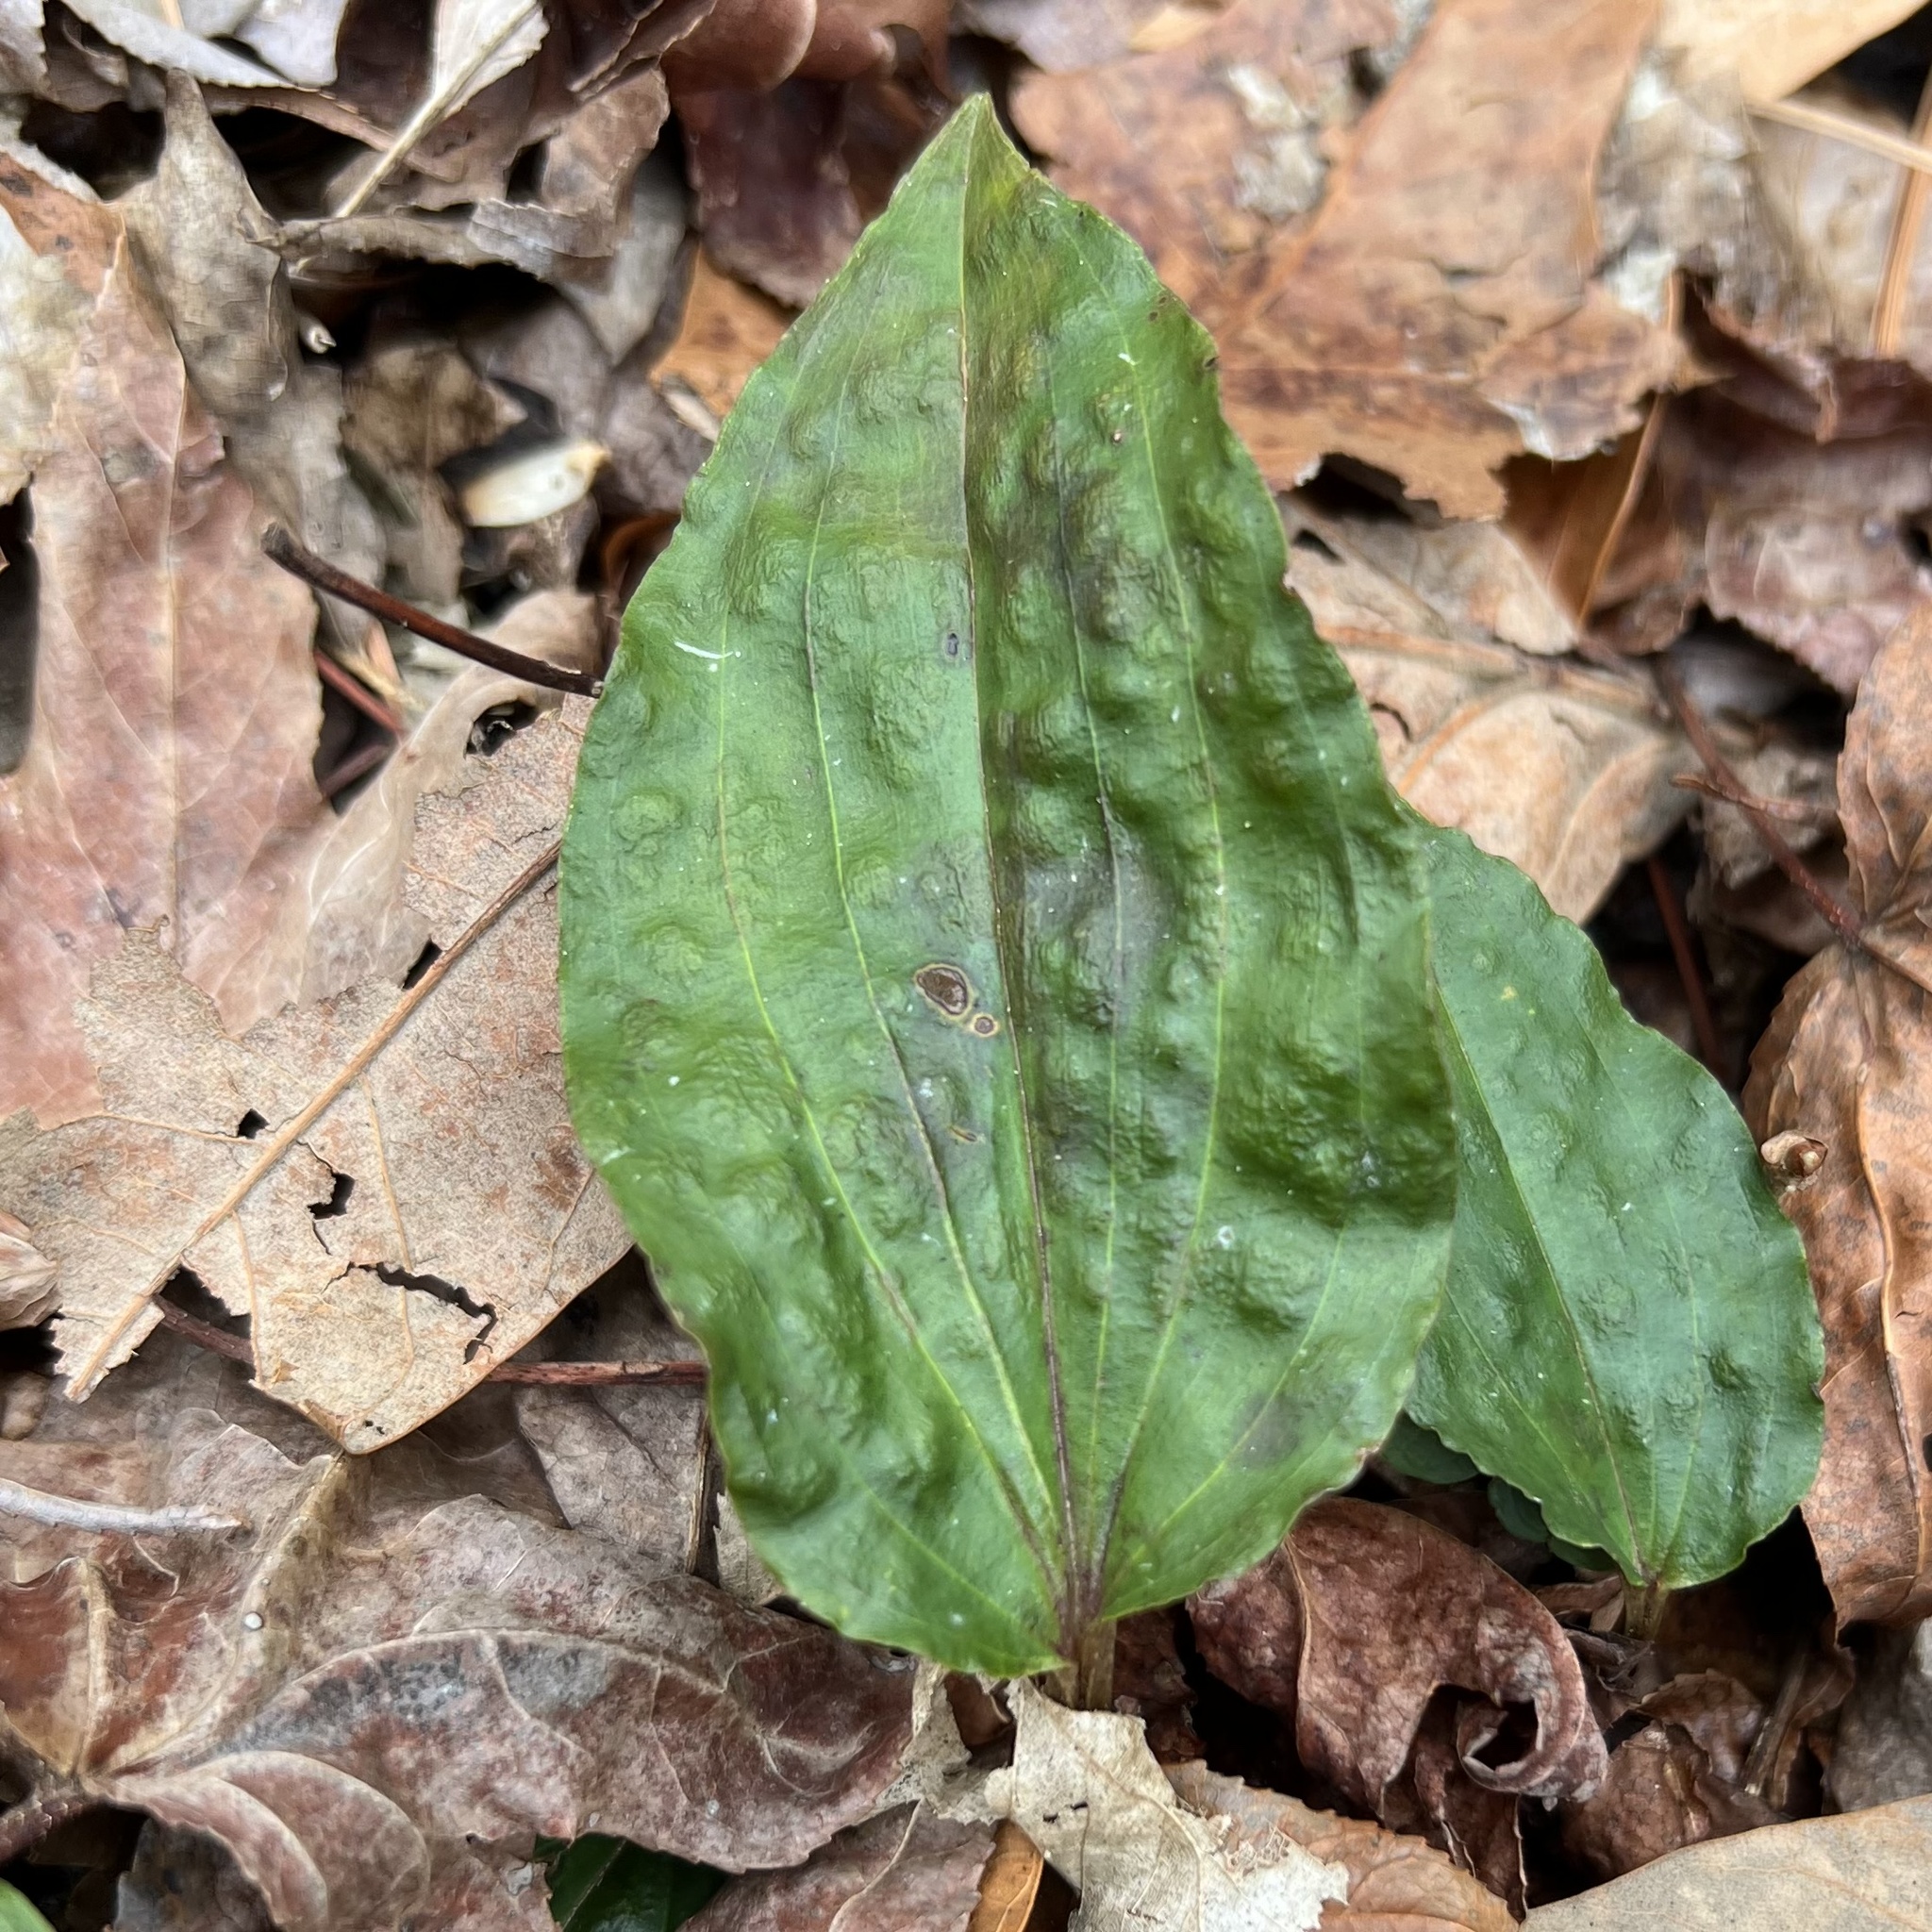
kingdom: Plantae
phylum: Tracheophyta
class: Liliopsida
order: Asparagales
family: Orchidaceae
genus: Tipularia
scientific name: Tipularia discolor
